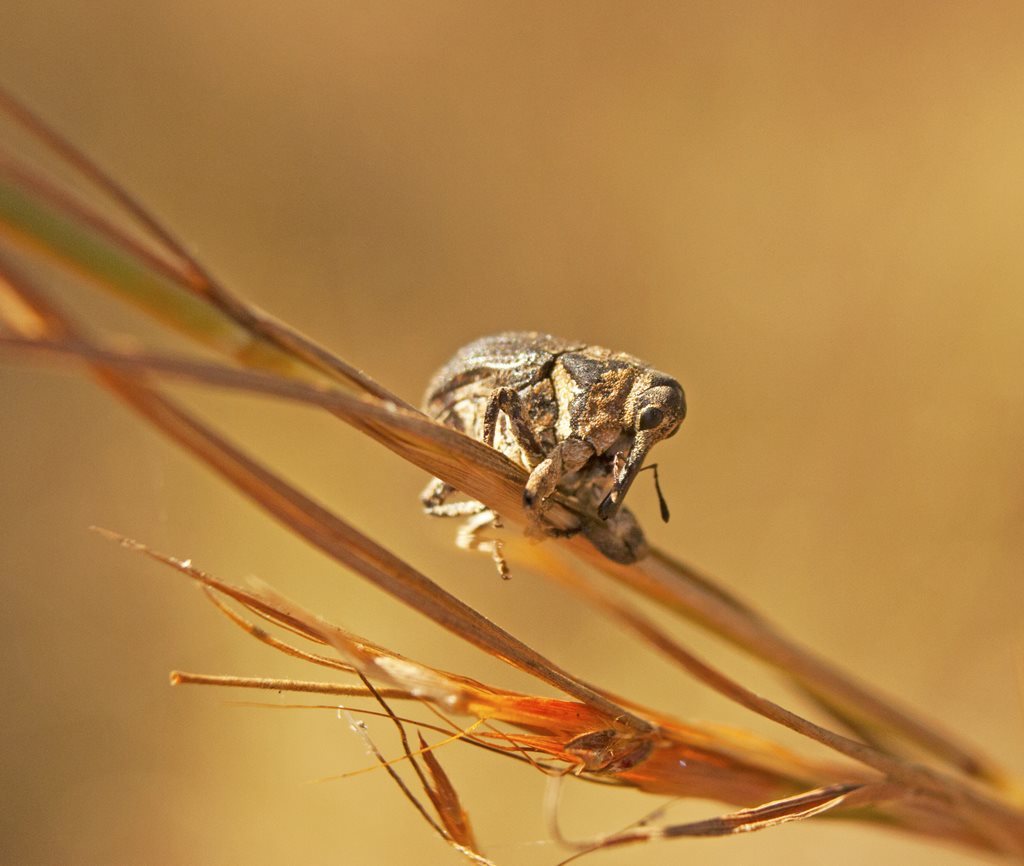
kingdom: Animalia
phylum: Arthropoda
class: Insecta
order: Coleoptera
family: Curculionidae
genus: Eutyrhinus
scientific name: Eutyrhinus meditabundus
